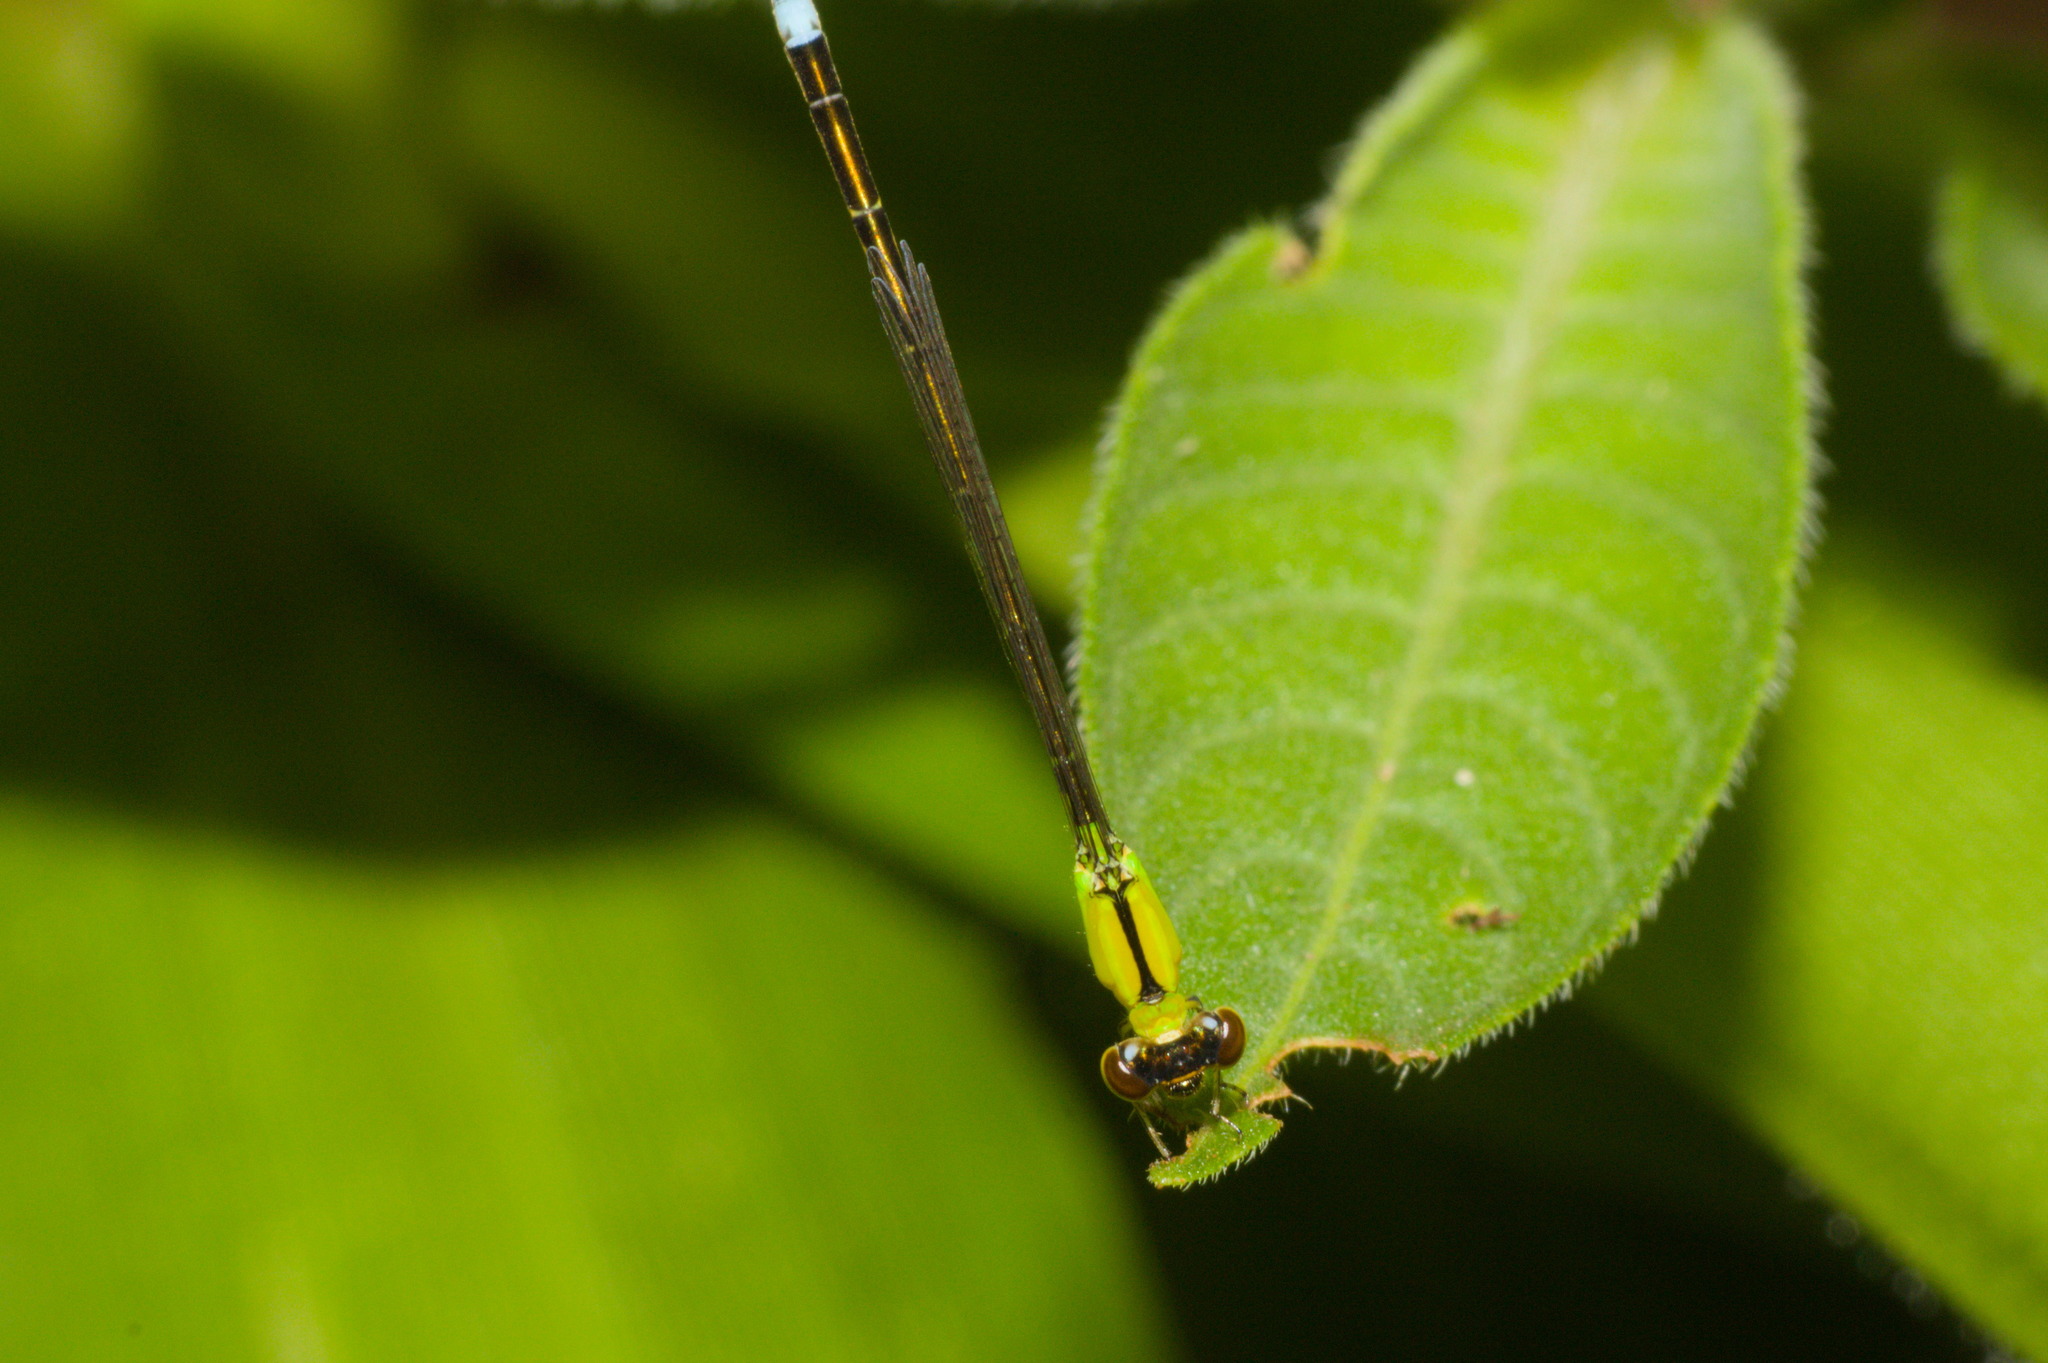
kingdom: Animalia
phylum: Arthropoda
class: Insecta
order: Odonata
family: Coenagrionidae
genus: Ischnura
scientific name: Ischnura capreolus
